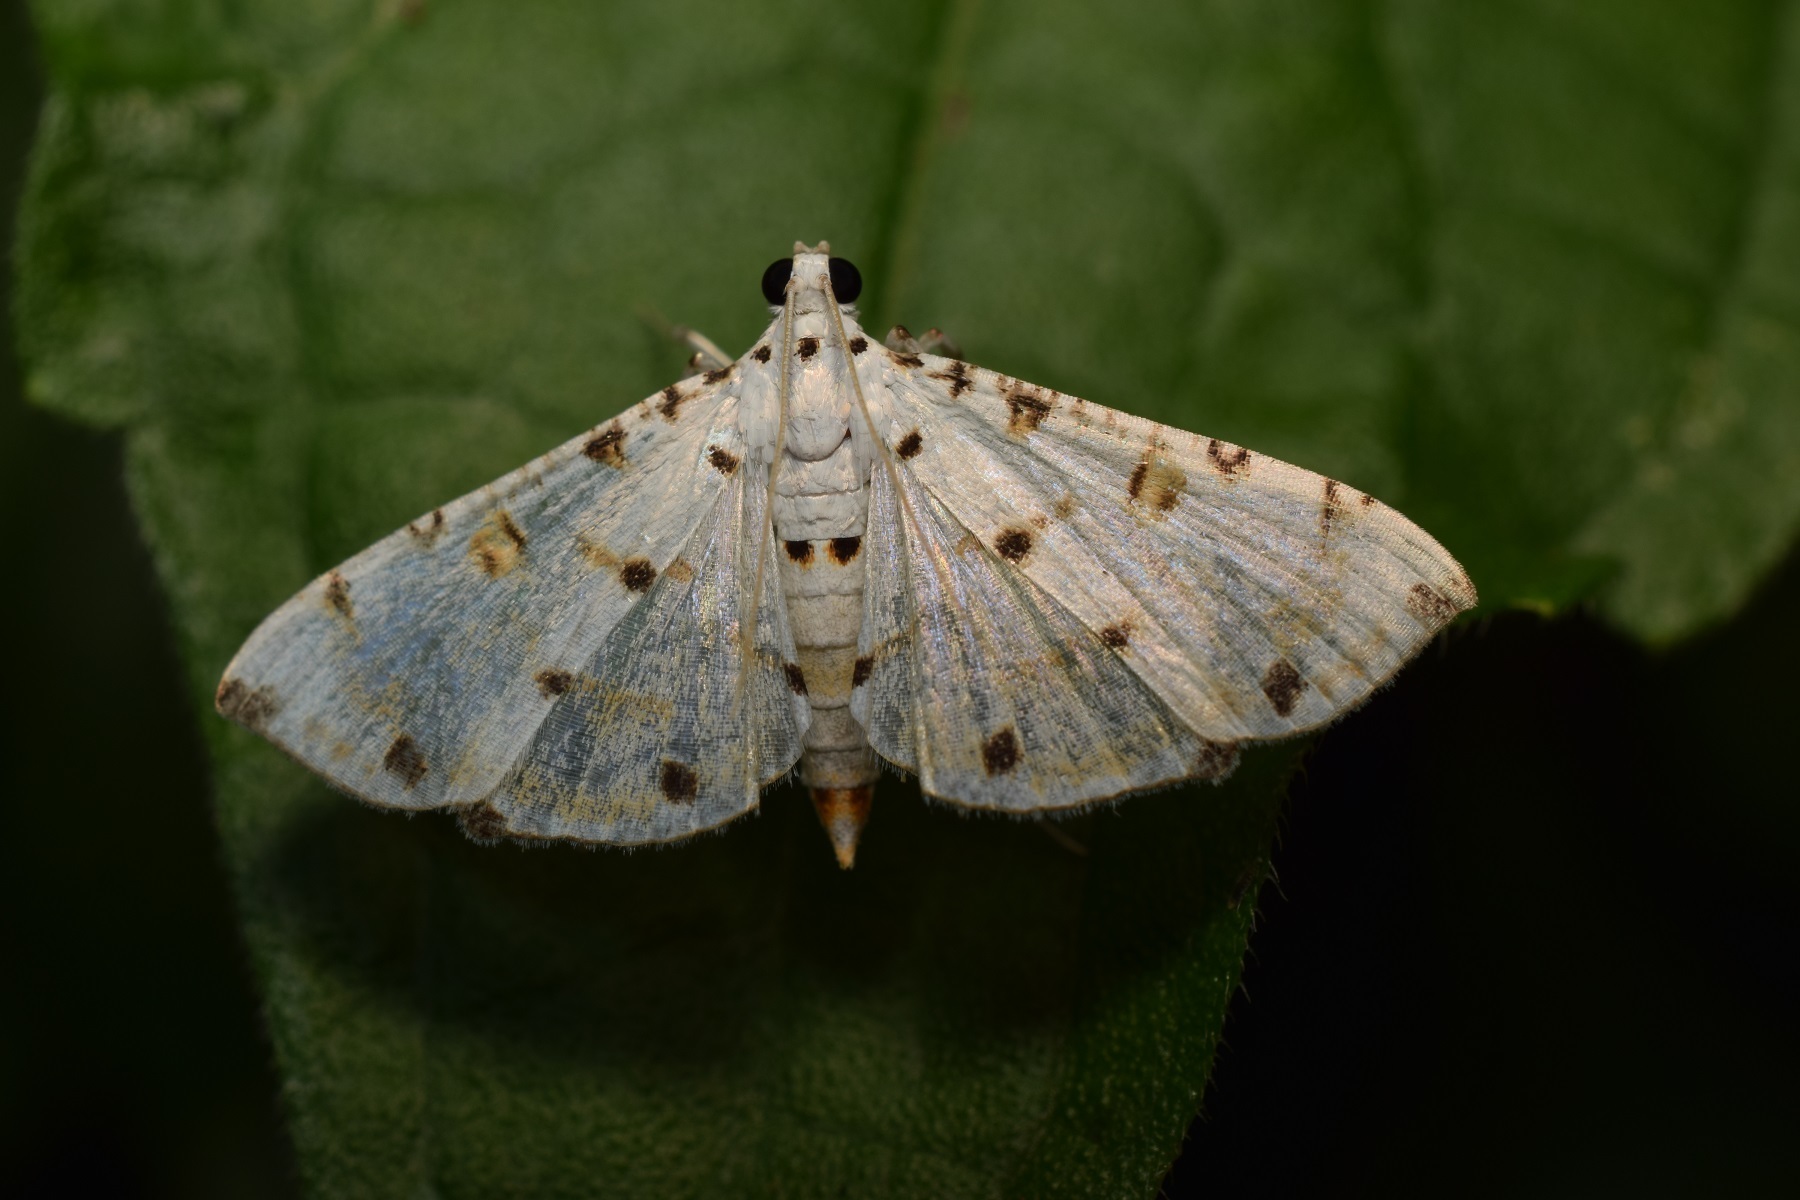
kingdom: Animalia
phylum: Arthropoda
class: Insecta
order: Lepidoptera
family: Crambidae
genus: Pycnarmon
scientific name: Pycnarmon cribrata
